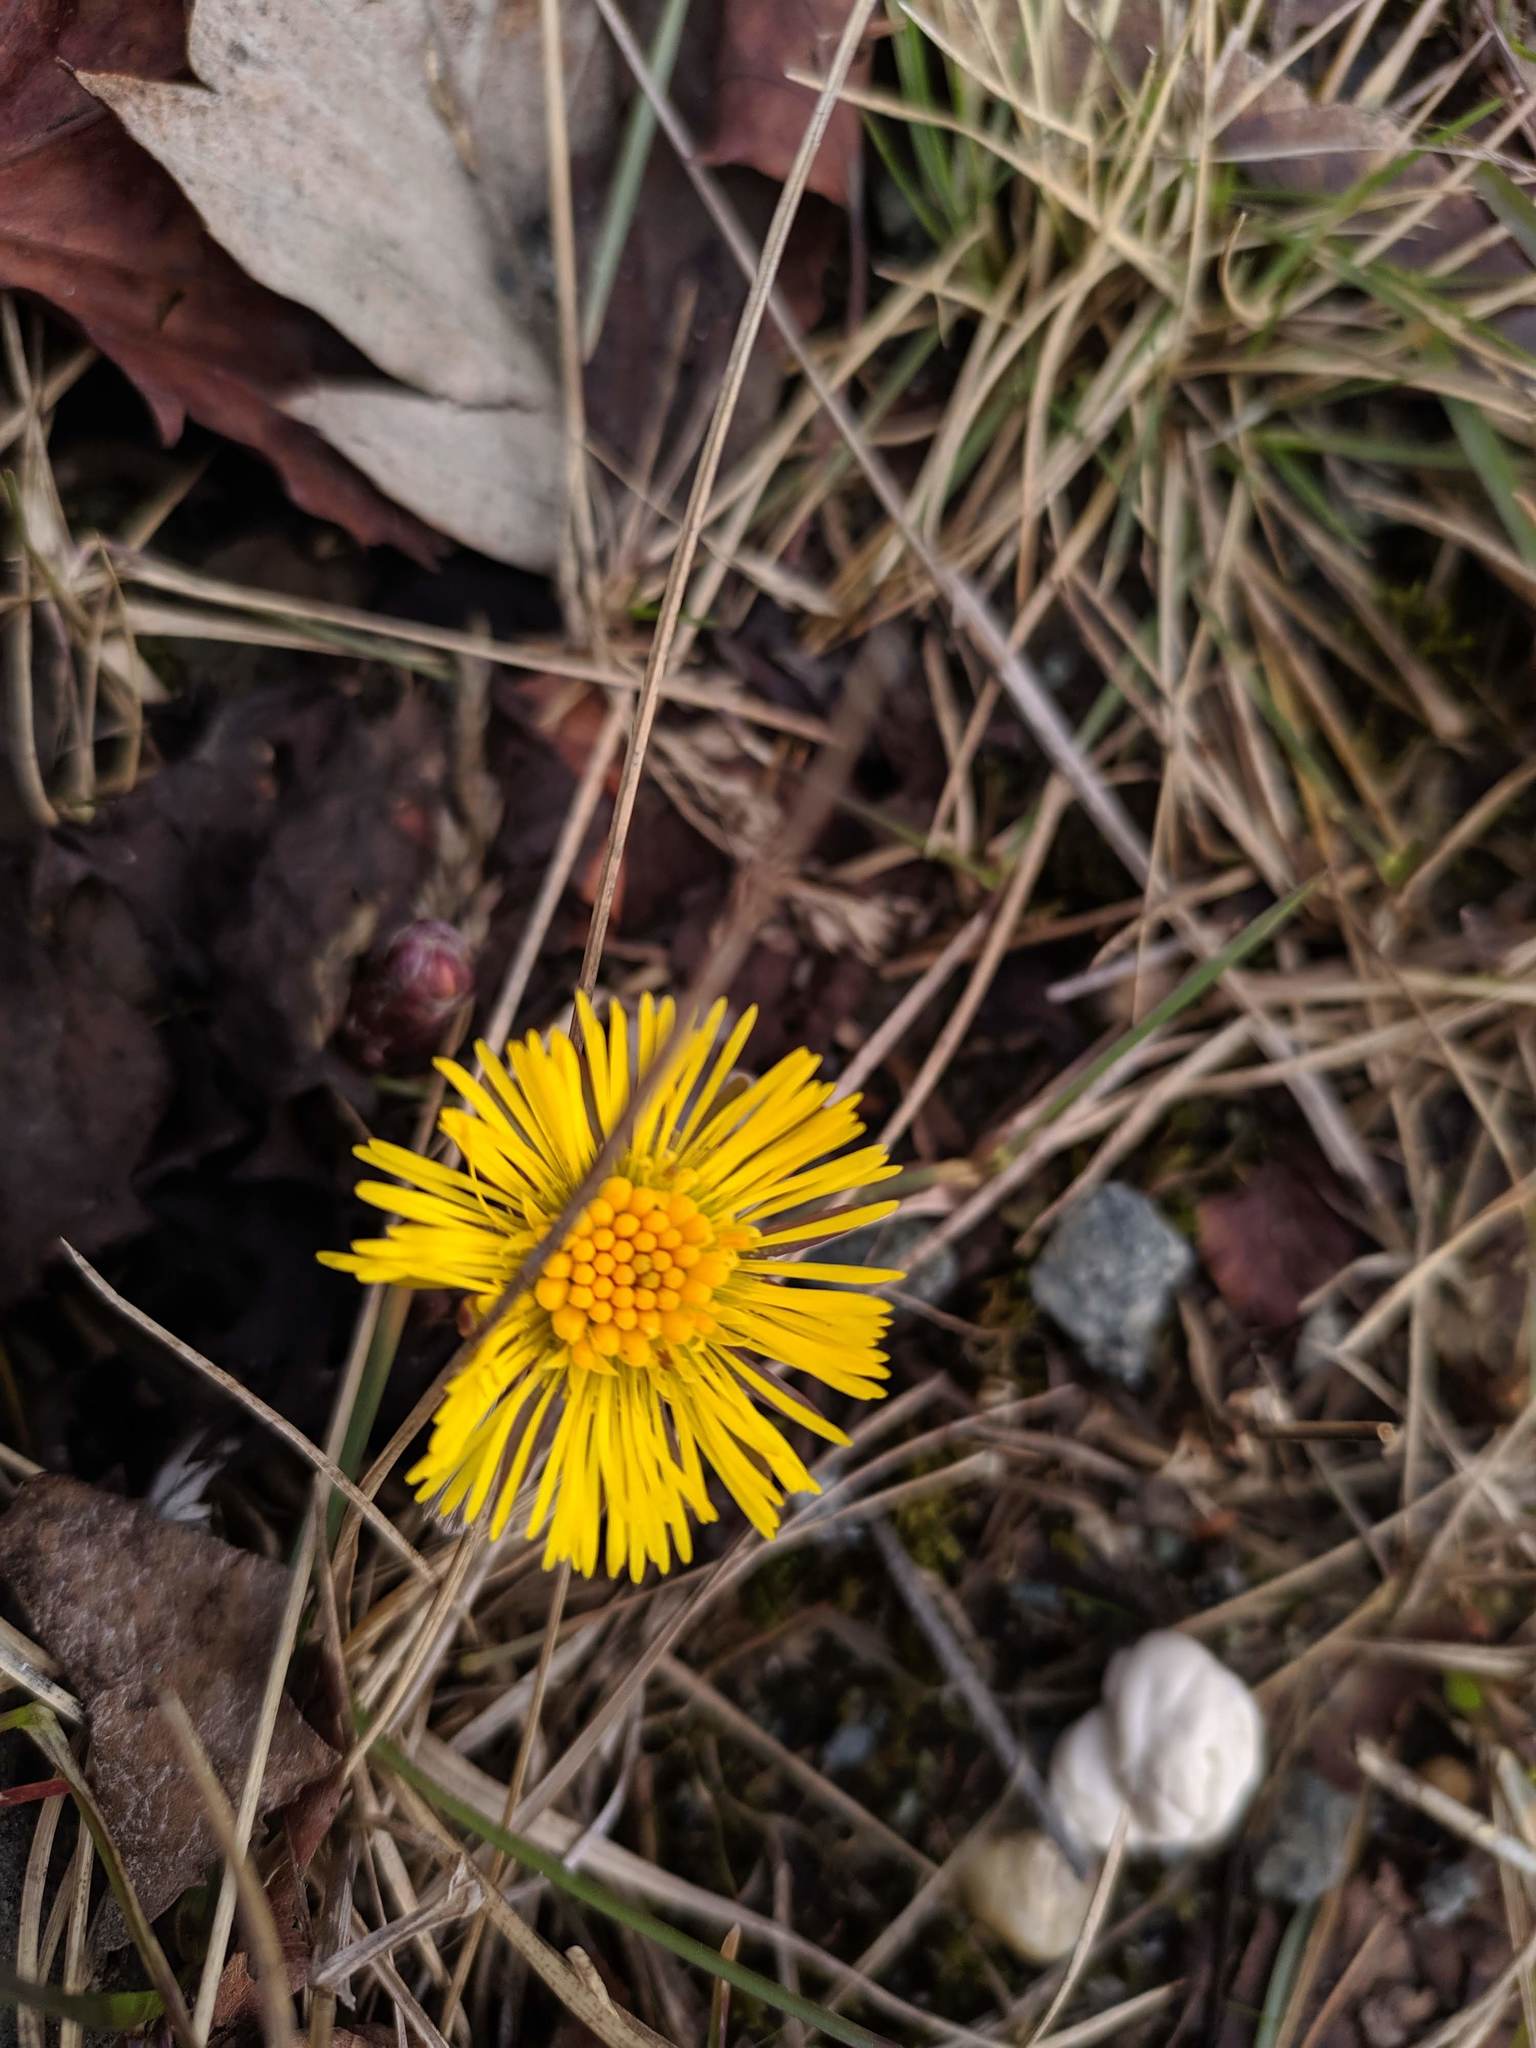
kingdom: Plantae
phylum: Tracheophyta
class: Magnoliopsida
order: Asterales
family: Asteraceae
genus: Tussilago
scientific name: Tussilago farfara
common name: Coltsfoot
